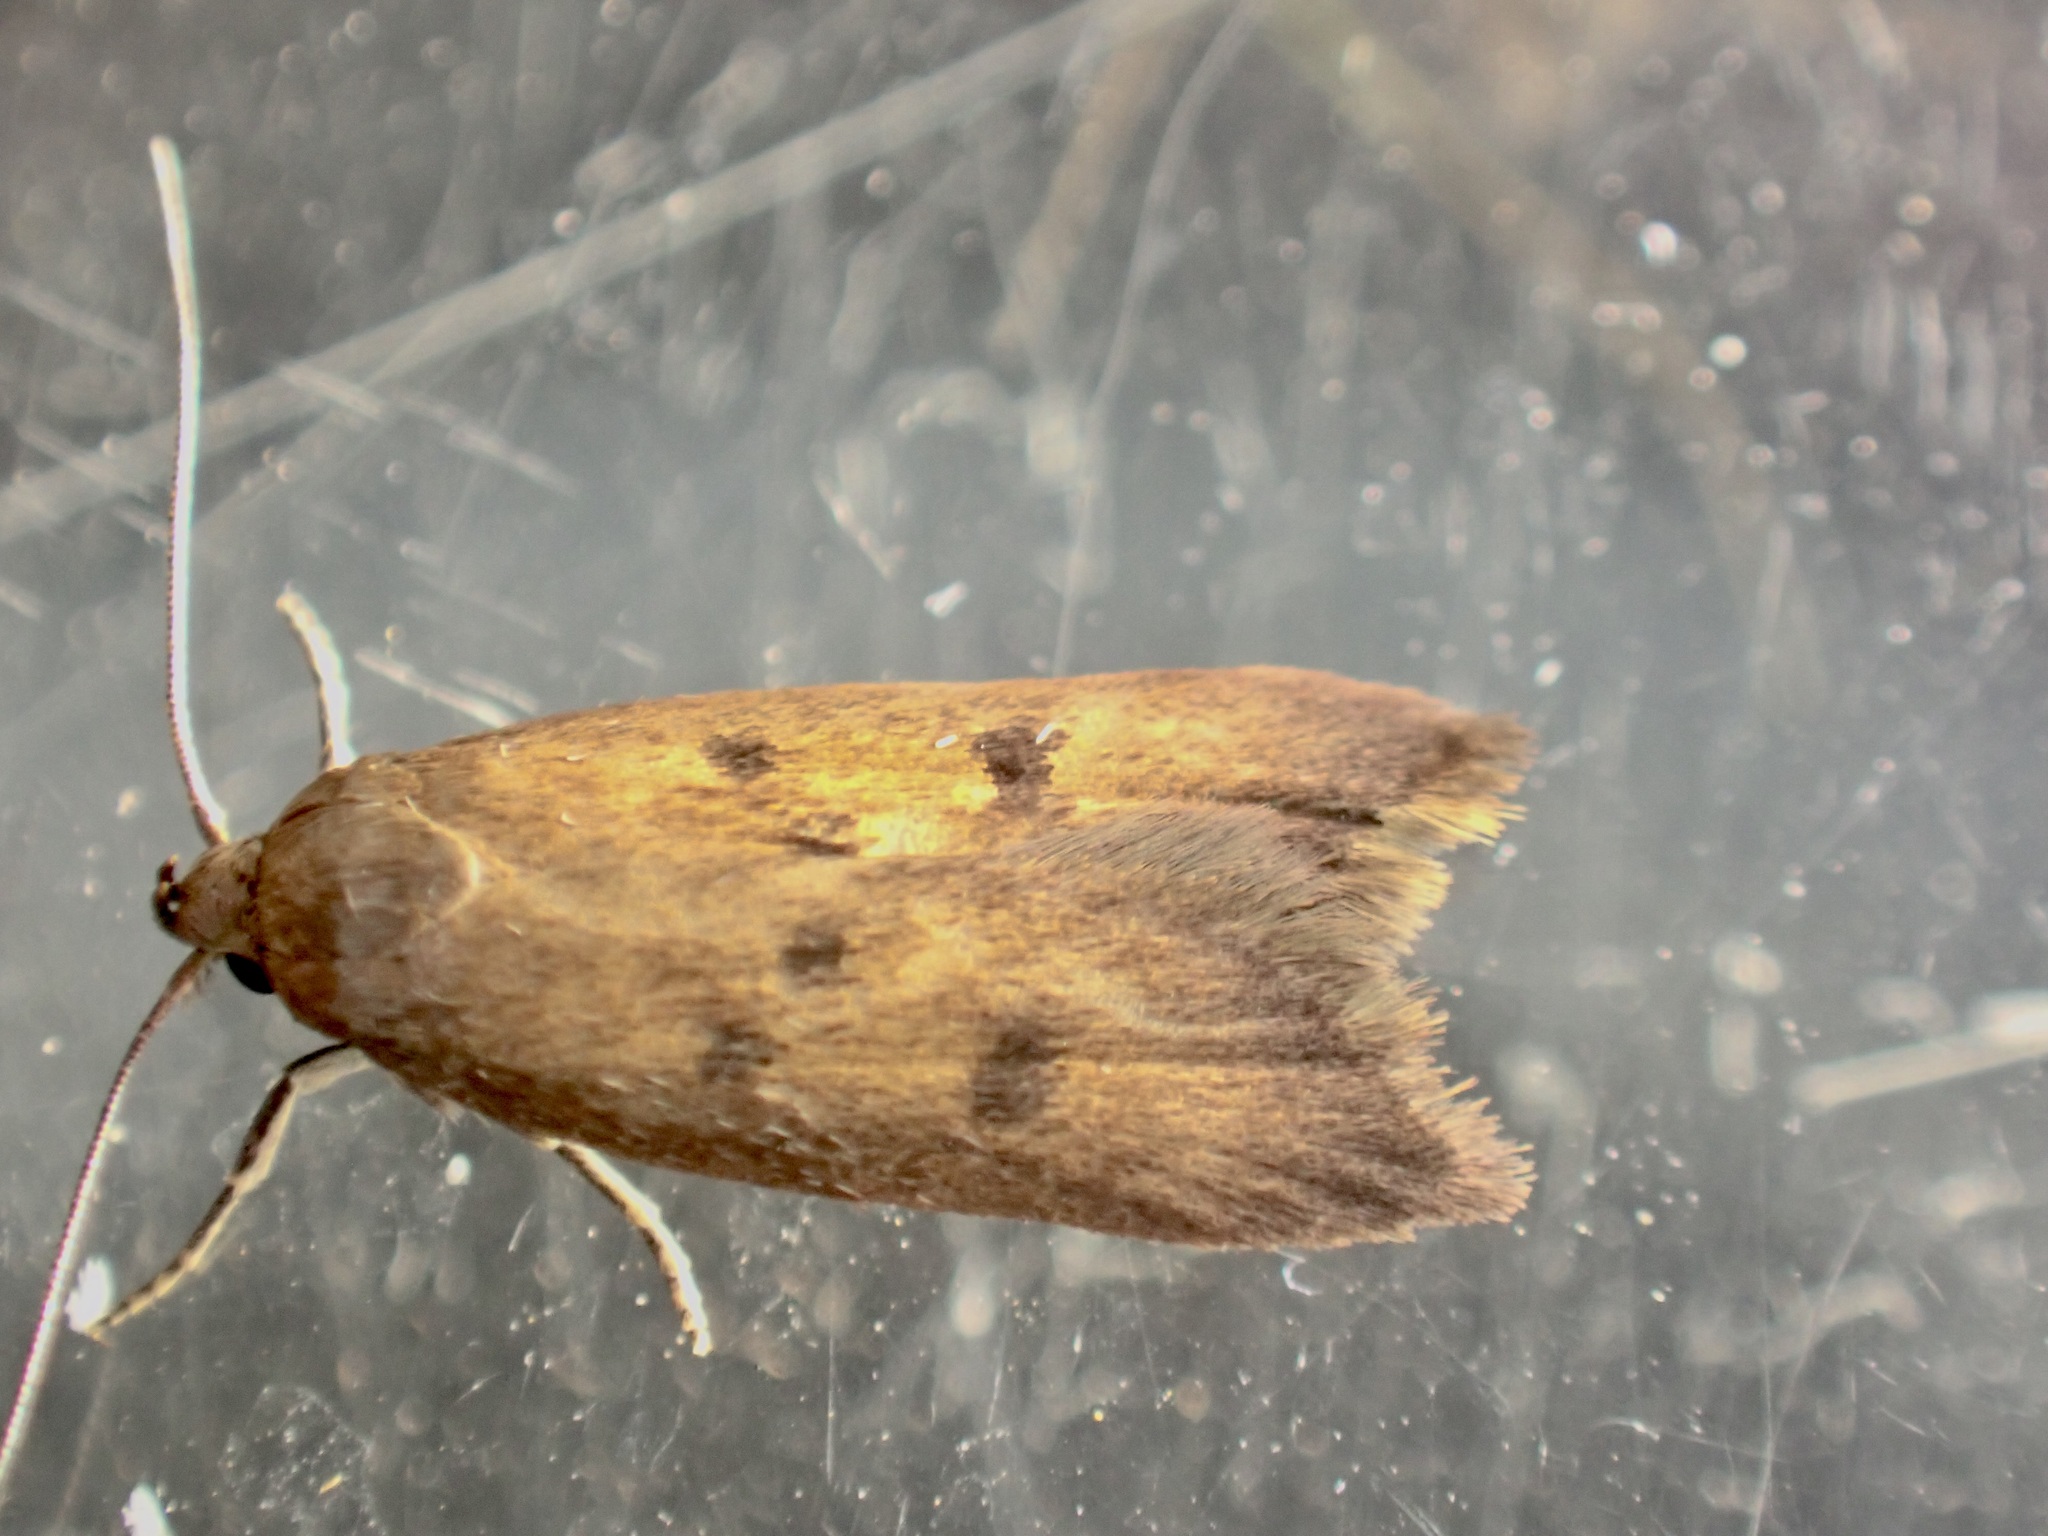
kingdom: Animalia
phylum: Arthropoda
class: Insecta
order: Lepidoptera
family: Oecophoridae
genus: Tachystola
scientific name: Tachystola acroxantha
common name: Ruddy streak
